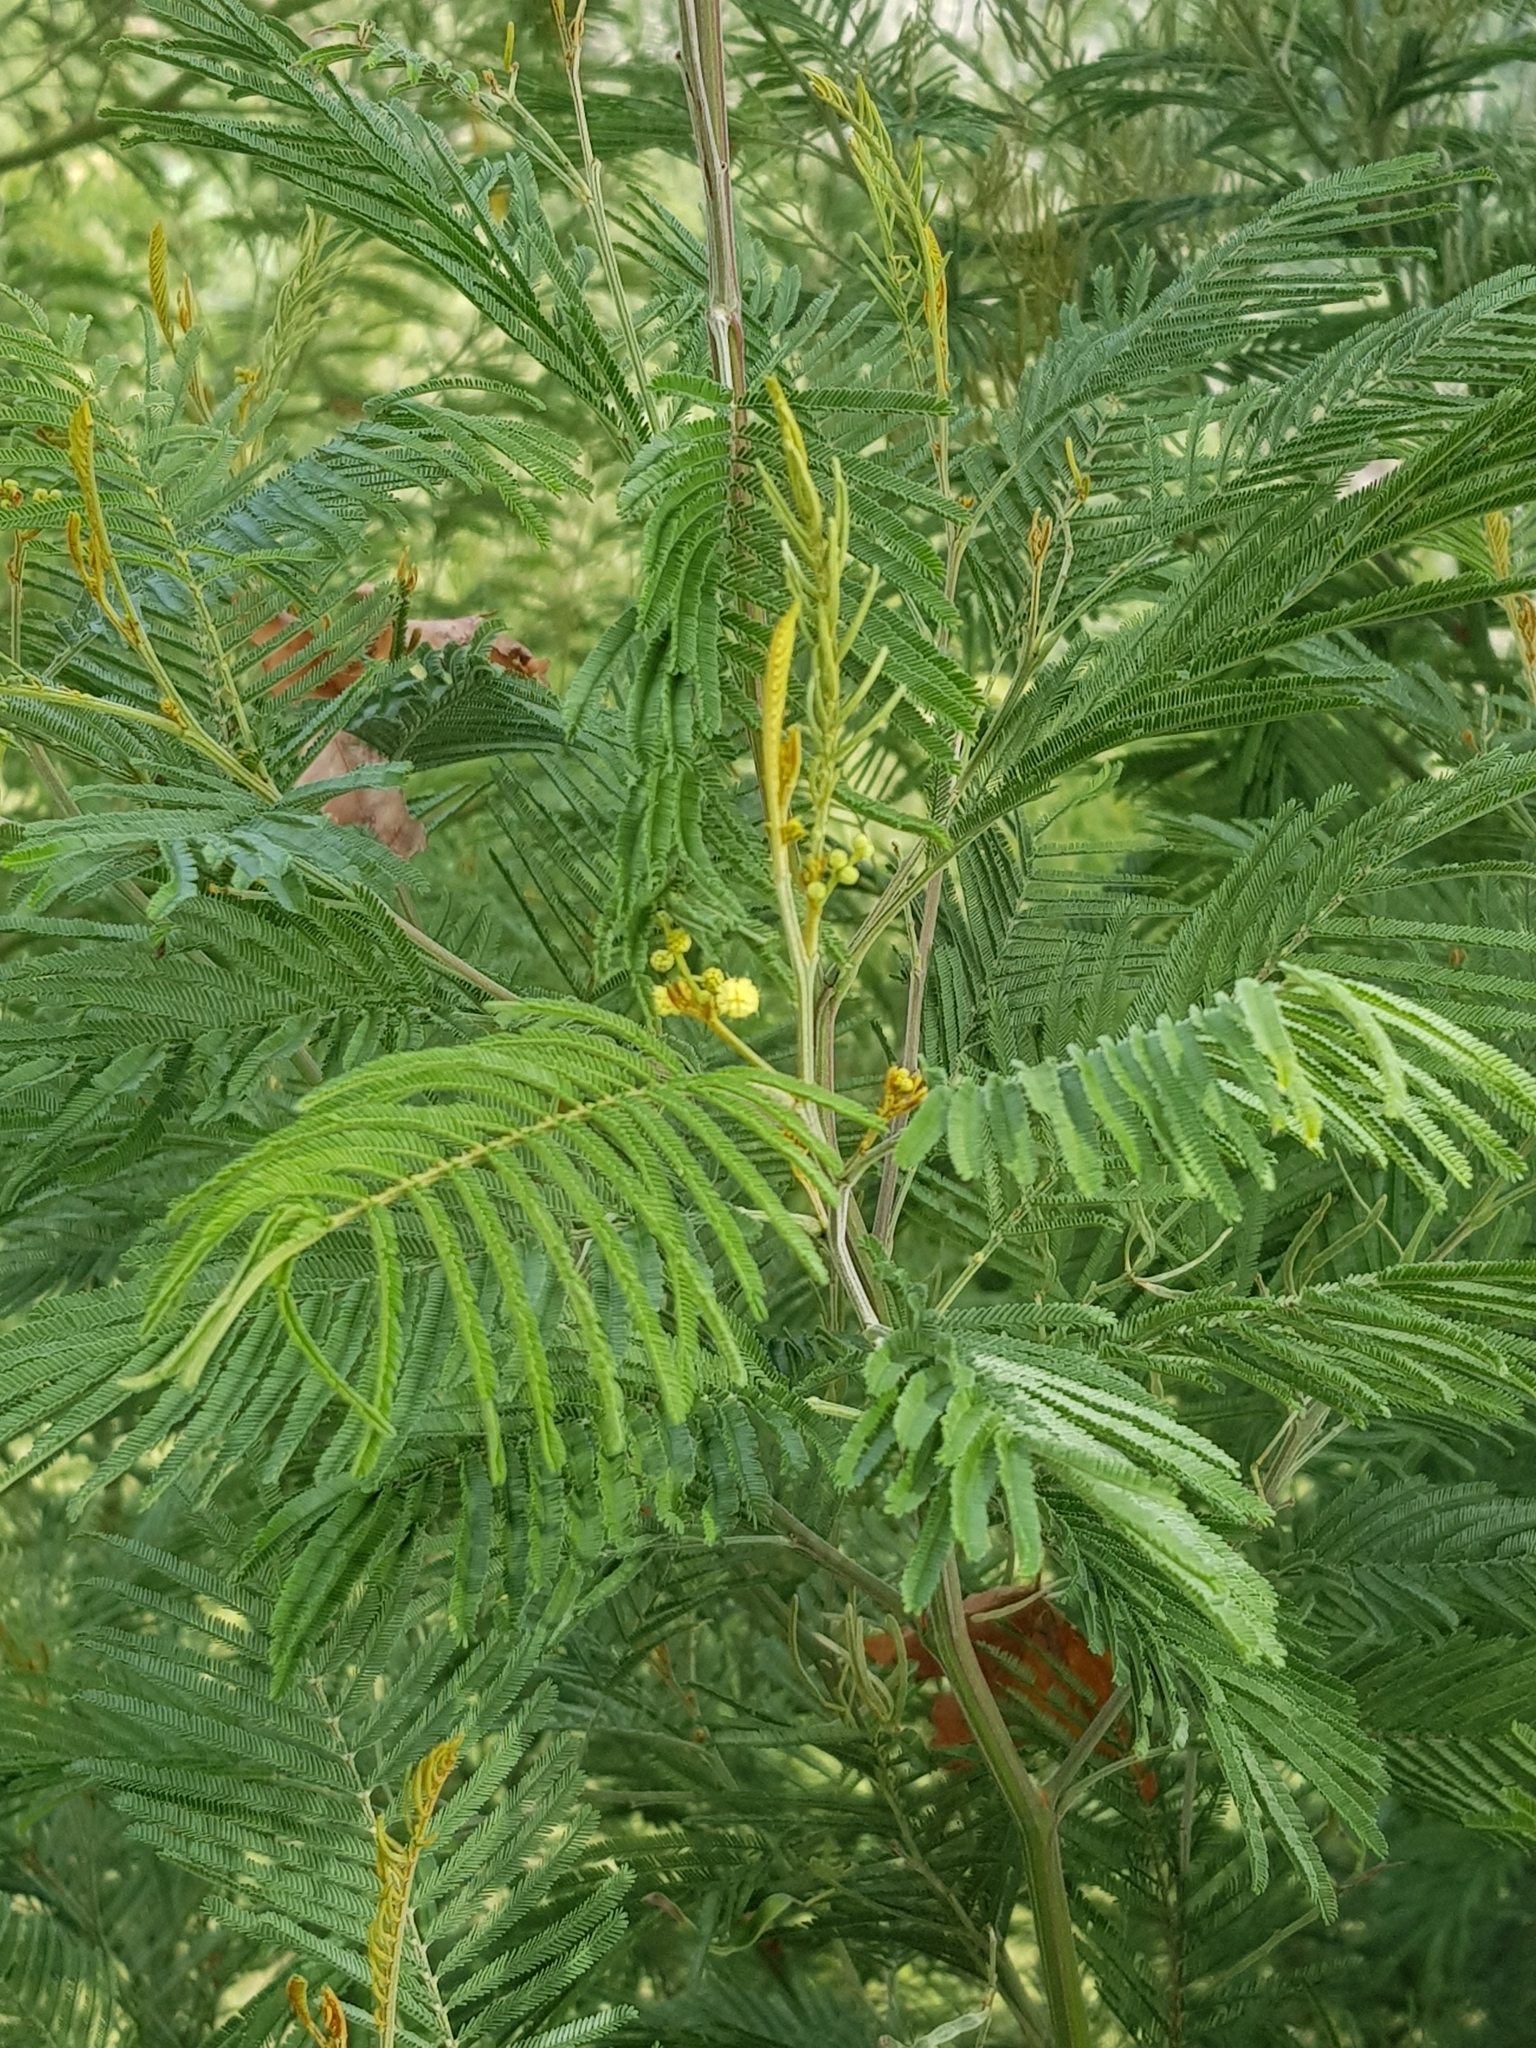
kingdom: Plantae
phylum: Tracheophyta
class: Magnoliopsida
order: Fabales
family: Fabaceae
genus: Acacia
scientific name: Acacia dealbata
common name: Silver wattle
